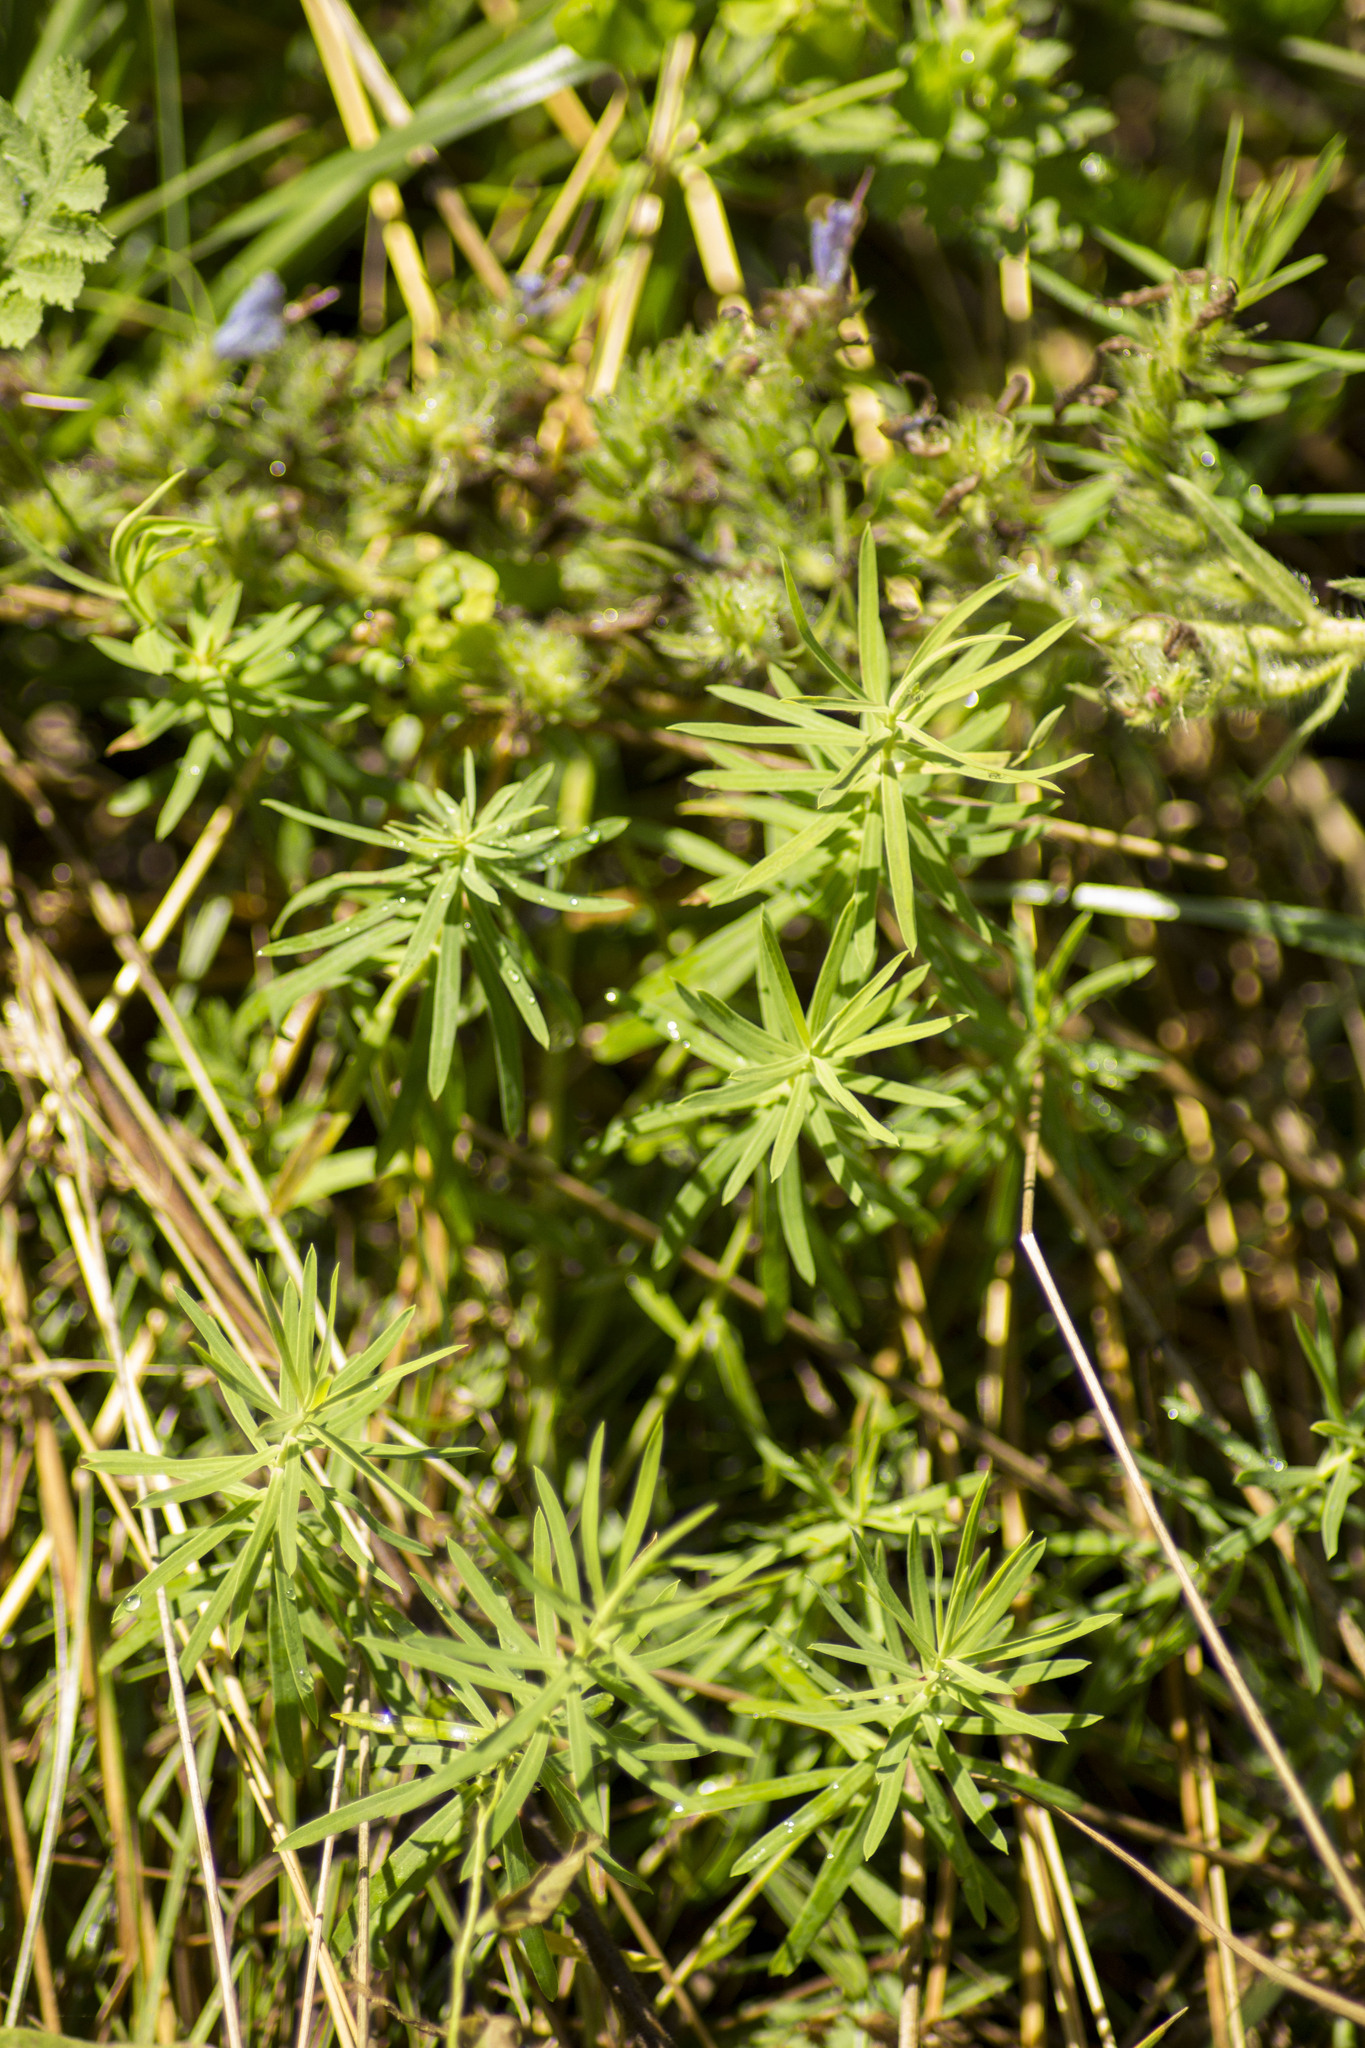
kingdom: Plantae
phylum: Tracheophyta
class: Magnoliopsida
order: Lamiales
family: Plantaginaceae
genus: Linaria
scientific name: Linaria vulgaris
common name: Butter and eggs
